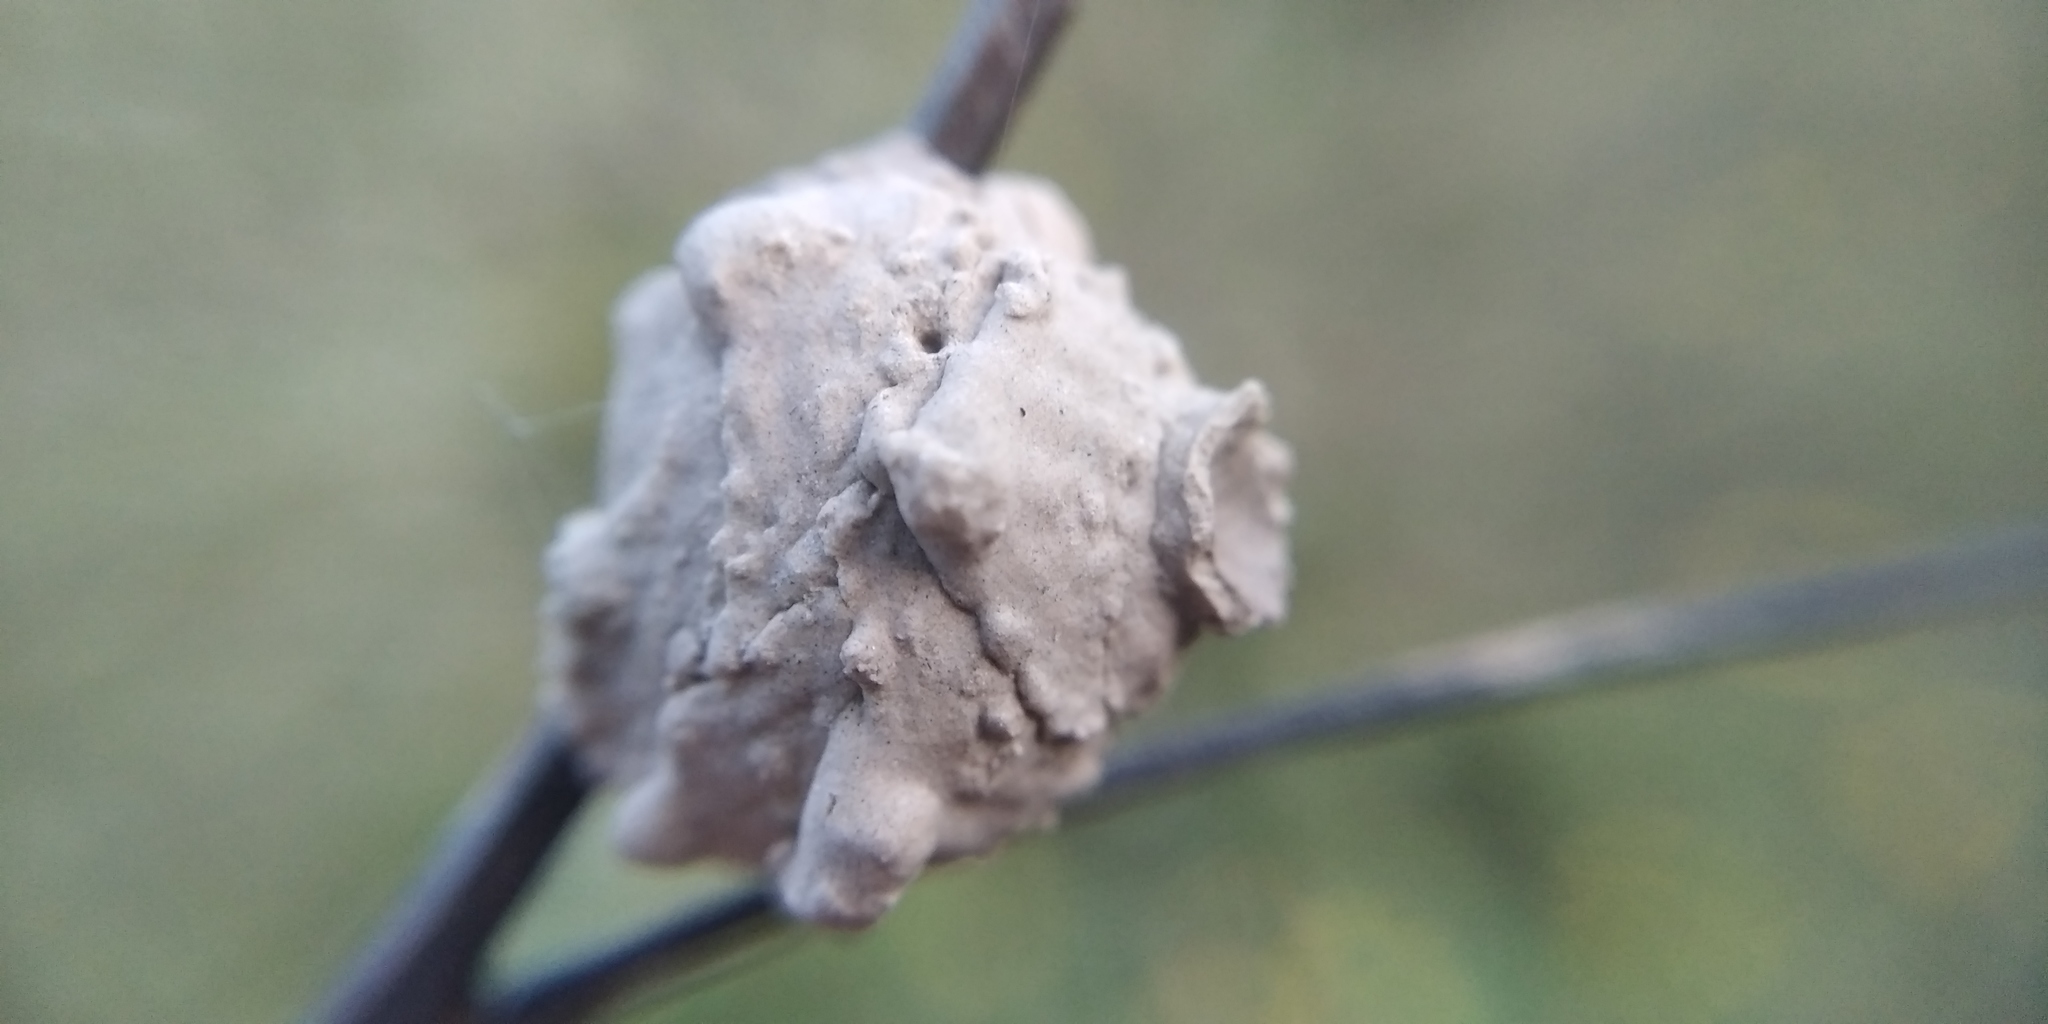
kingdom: Animalia
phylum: Arthropoda
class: Insecta
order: Hymenoptera
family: Eumenidae
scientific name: Eumenidae
